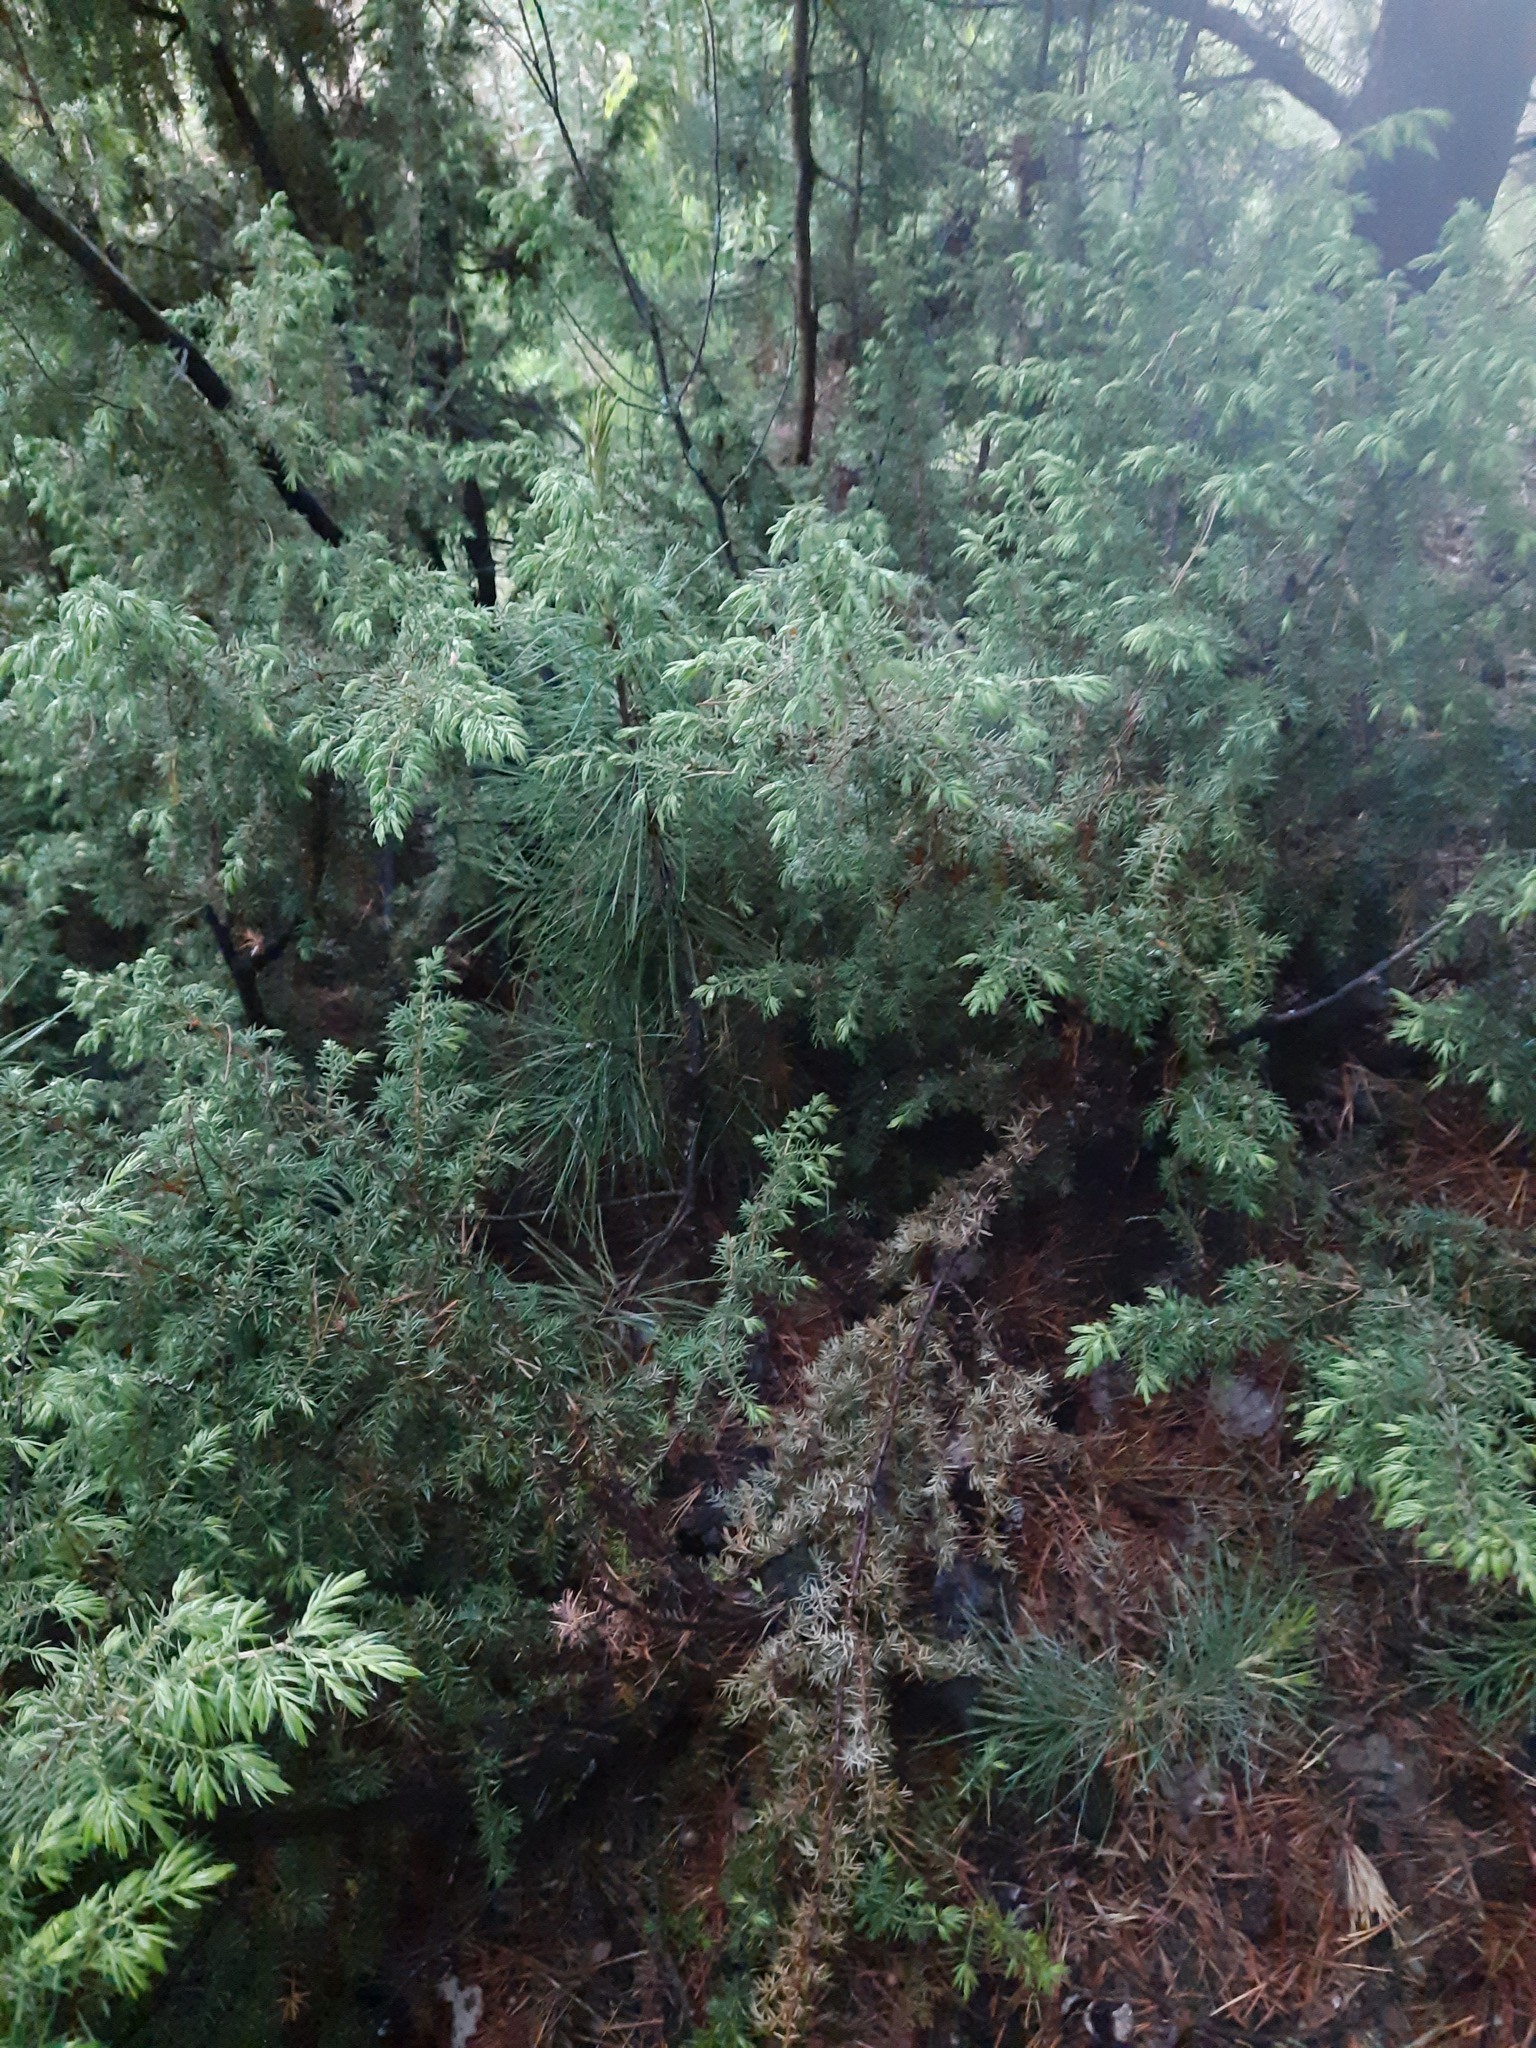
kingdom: Plantae
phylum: Tracheophyta
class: Pinopsida
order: Pinales
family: Cupressaceae
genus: Juniperus
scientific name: Juniperus communis
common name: Common juniper
